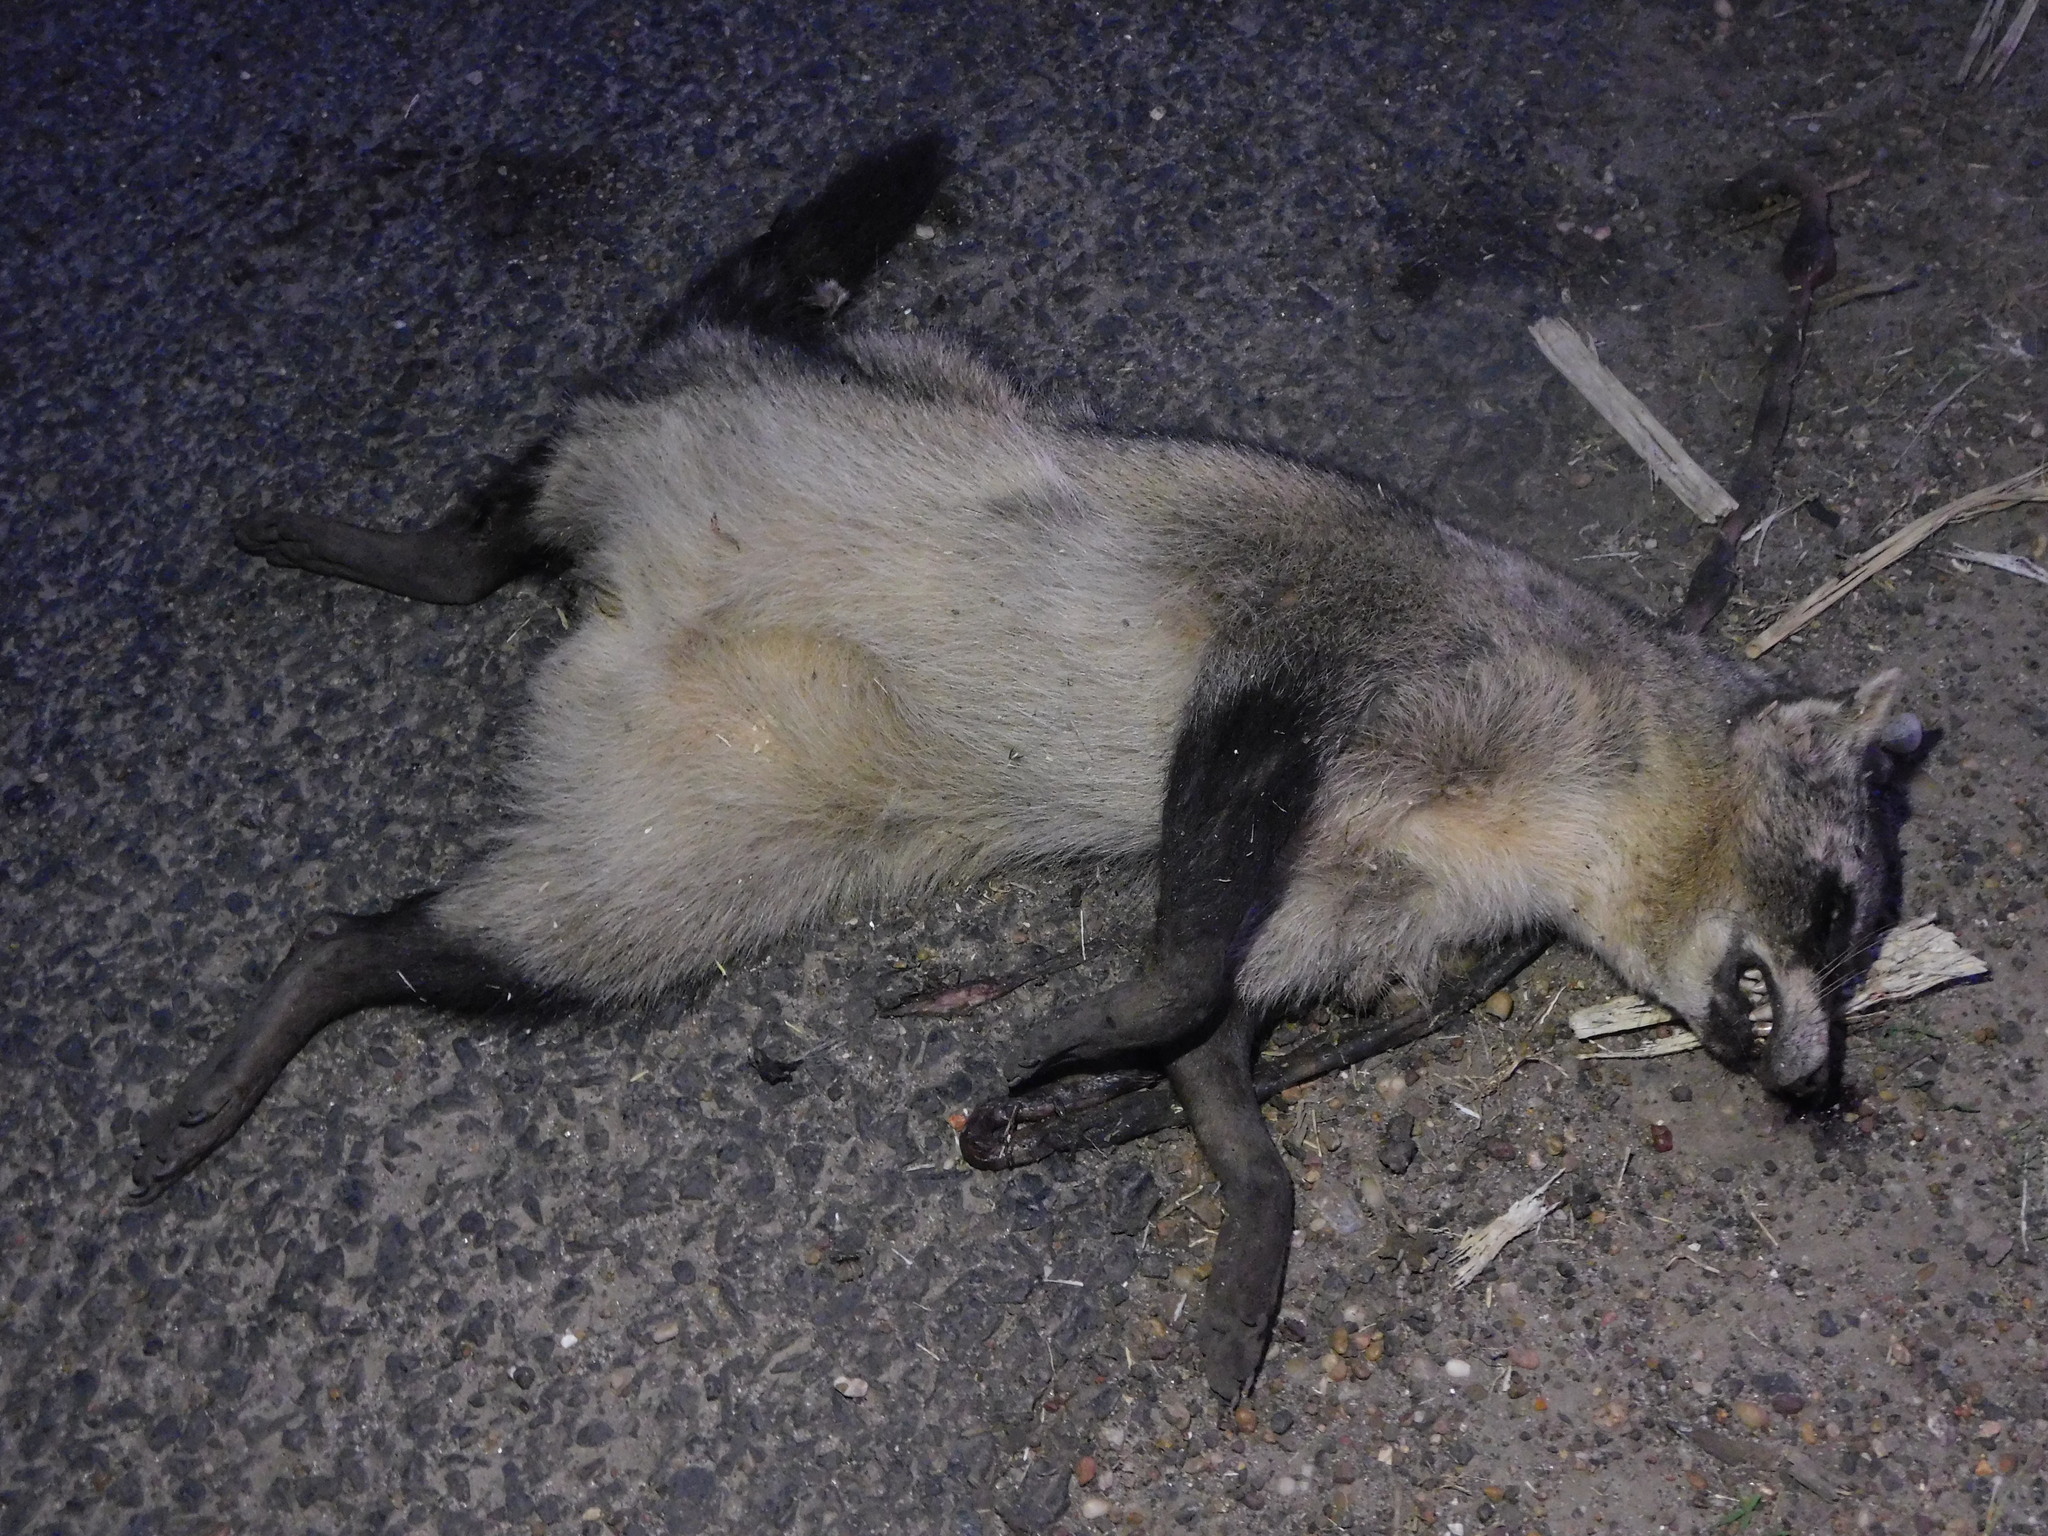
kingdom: Animalia
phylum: Chordata
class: Mammalia
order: Carnivora
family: Procyonidae
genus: Procyon
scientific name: Procyon cancrivorus
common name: Crab-eating raccoon
